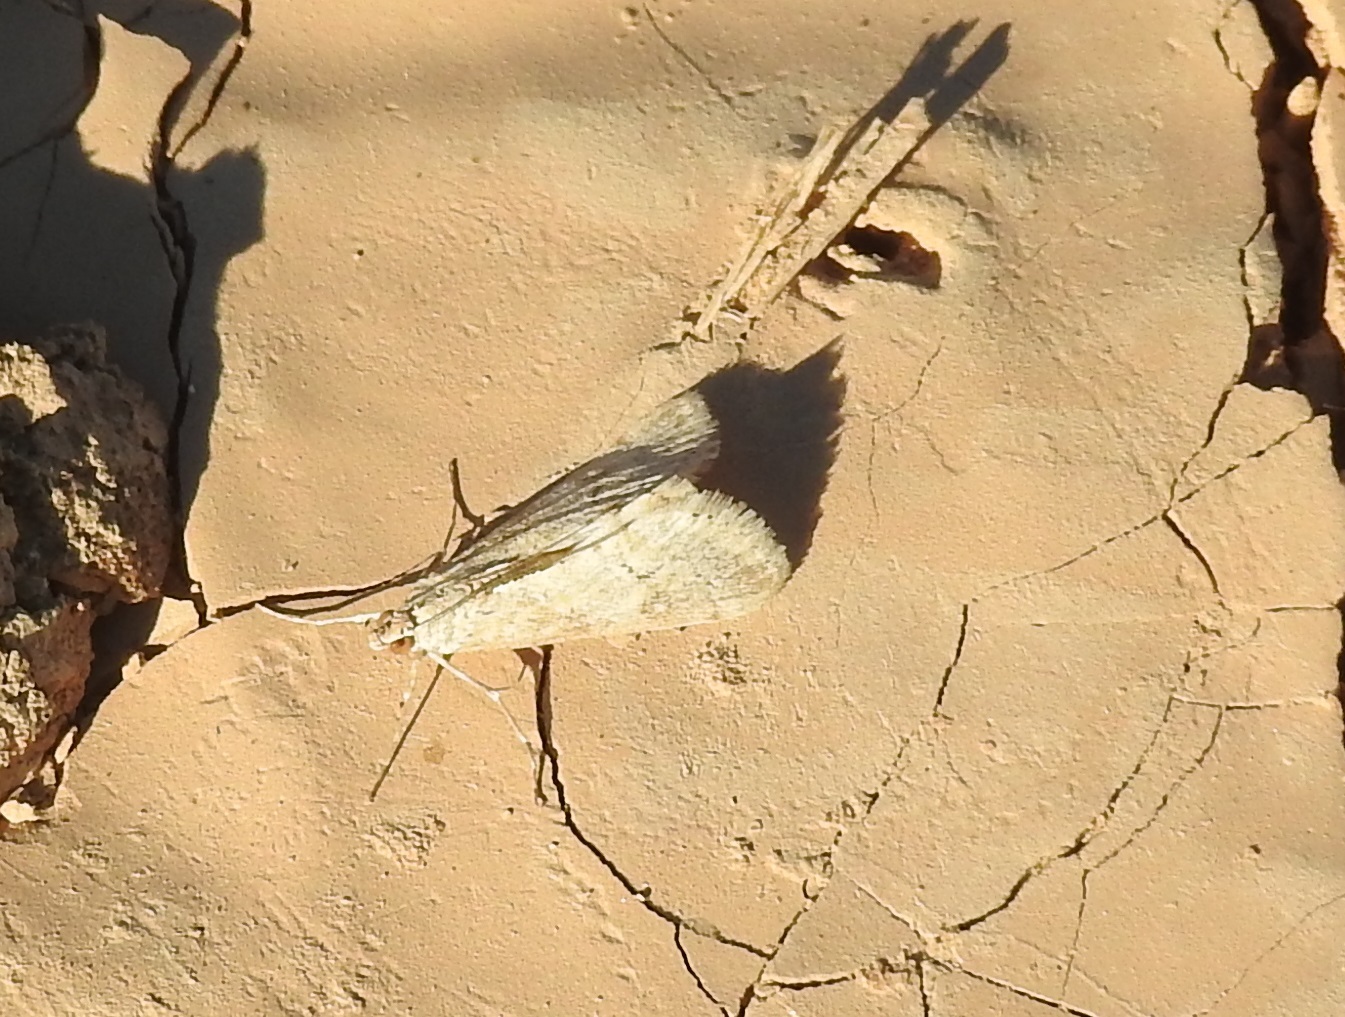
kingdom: Animalia
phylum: Arthropoda
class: Insecta
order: Lepidoptera
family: Crambidae
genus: Cornifrons
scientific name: Cornifrons ulceratalis
